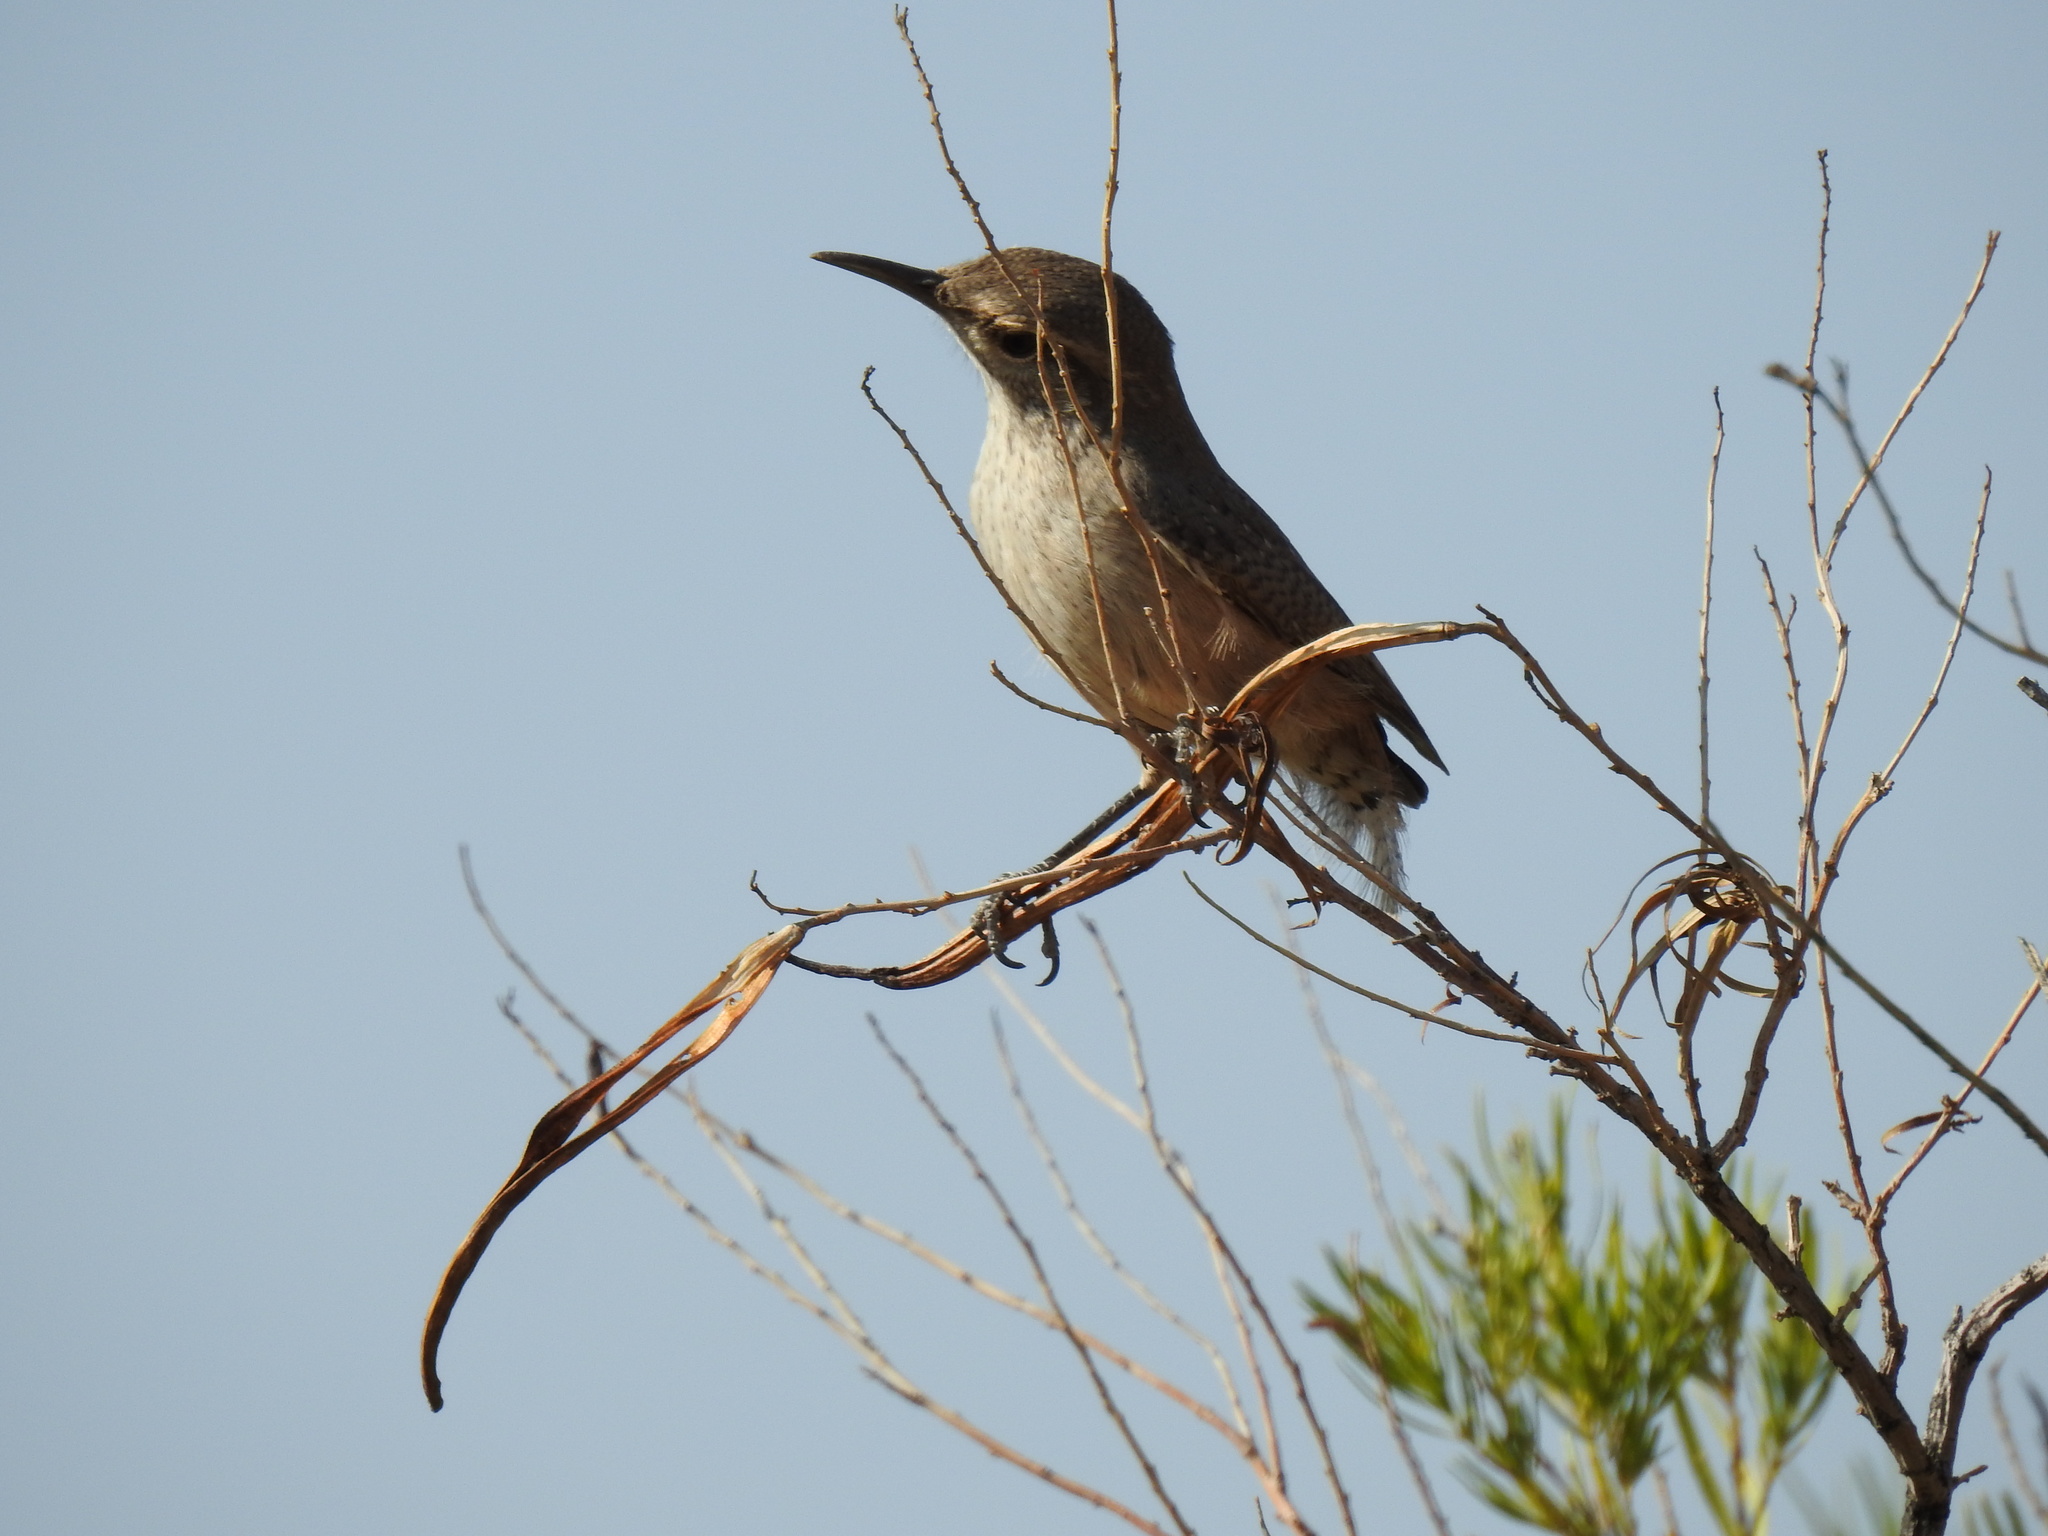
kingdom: Animalia
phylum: Chordata
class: Aves
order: Passeriformes
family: Troglodytidae
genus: Salpinctes
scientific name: Salpinctes obsoletus
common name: Rock wren
